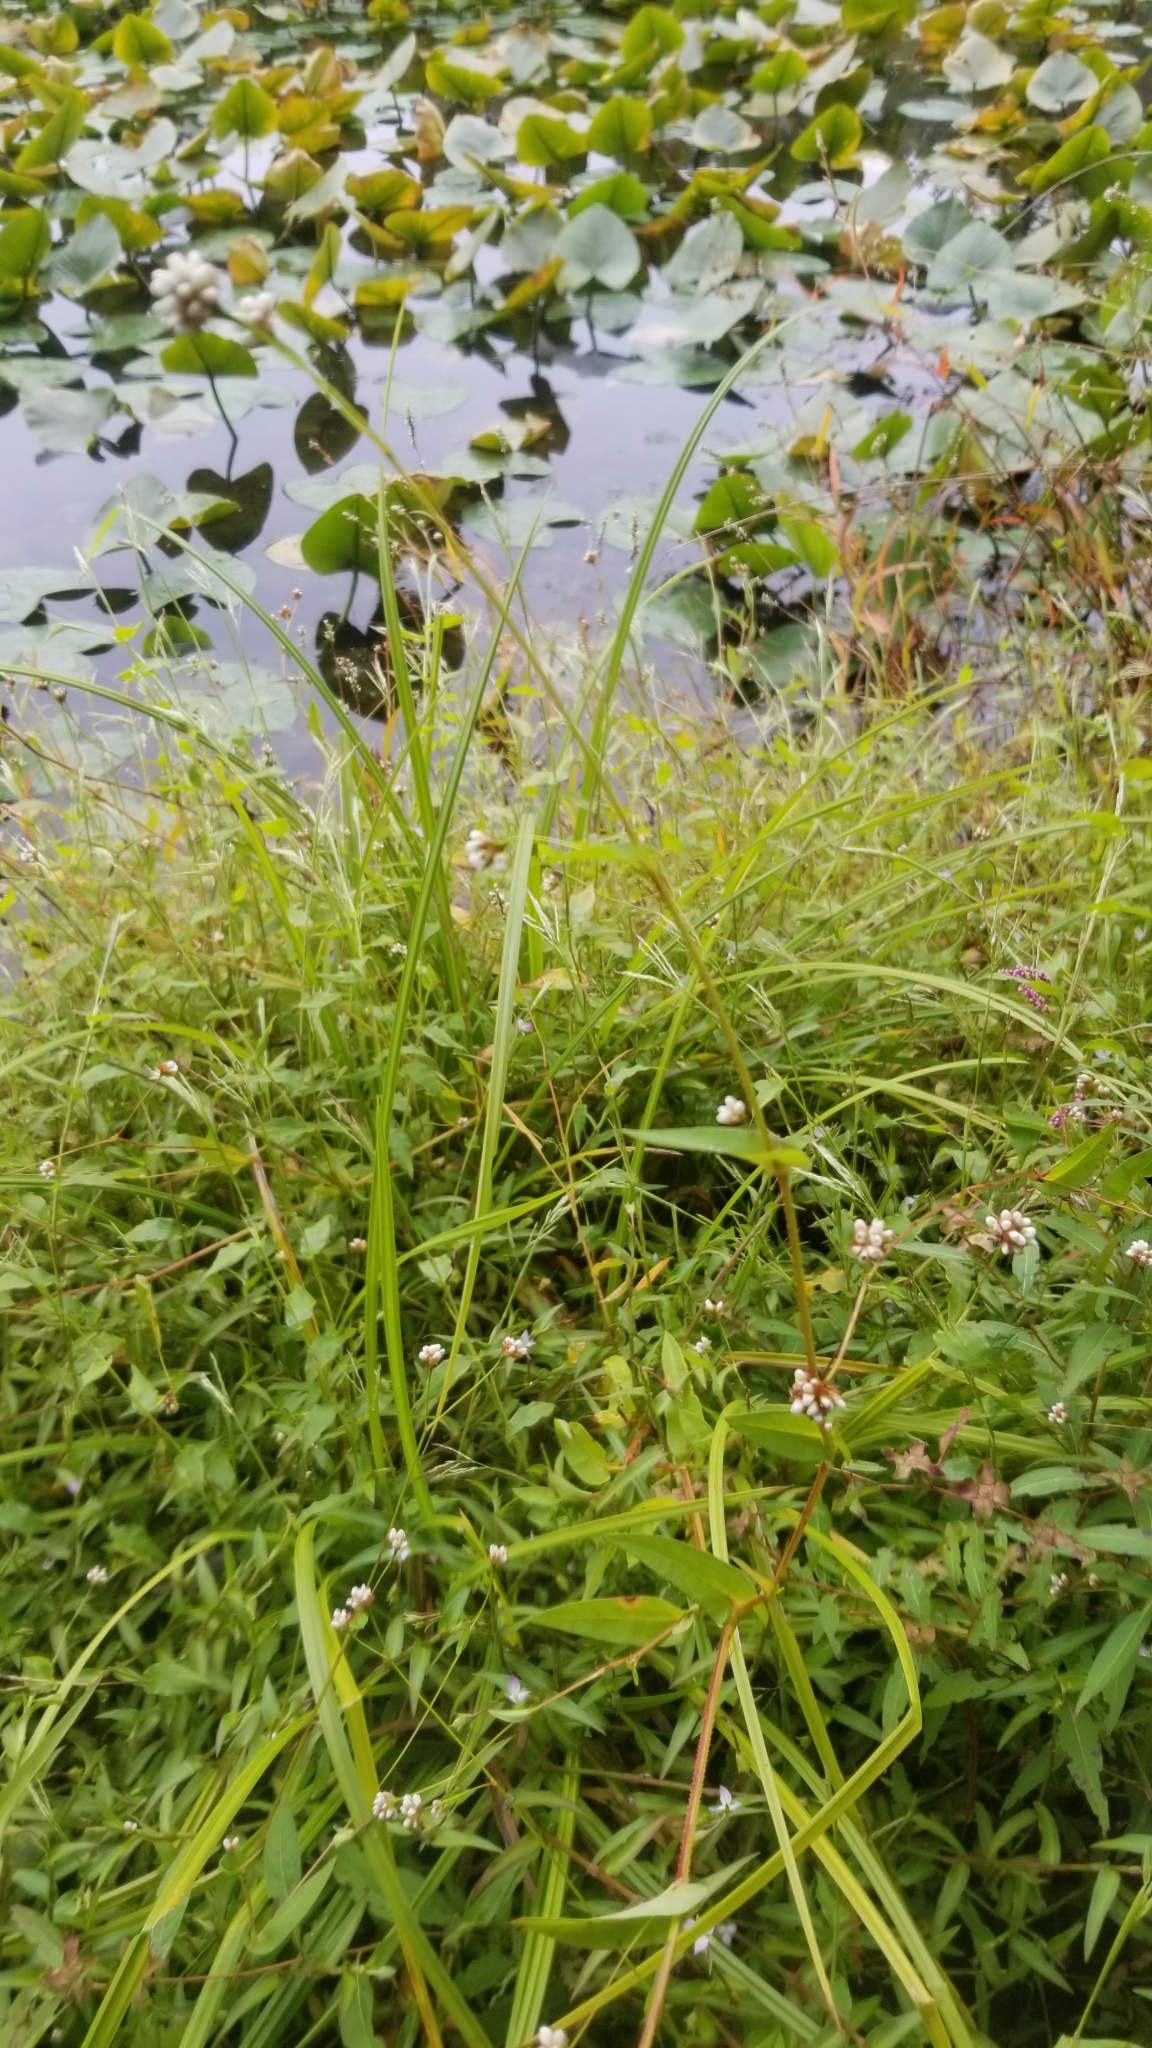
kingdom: Plantae
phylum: Tracheophyta
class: Magnoliopsida
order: Caryophyllales
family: Polygonaceae
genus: Persicaria
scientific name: Persicaria sagittata
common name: American tearthumb
